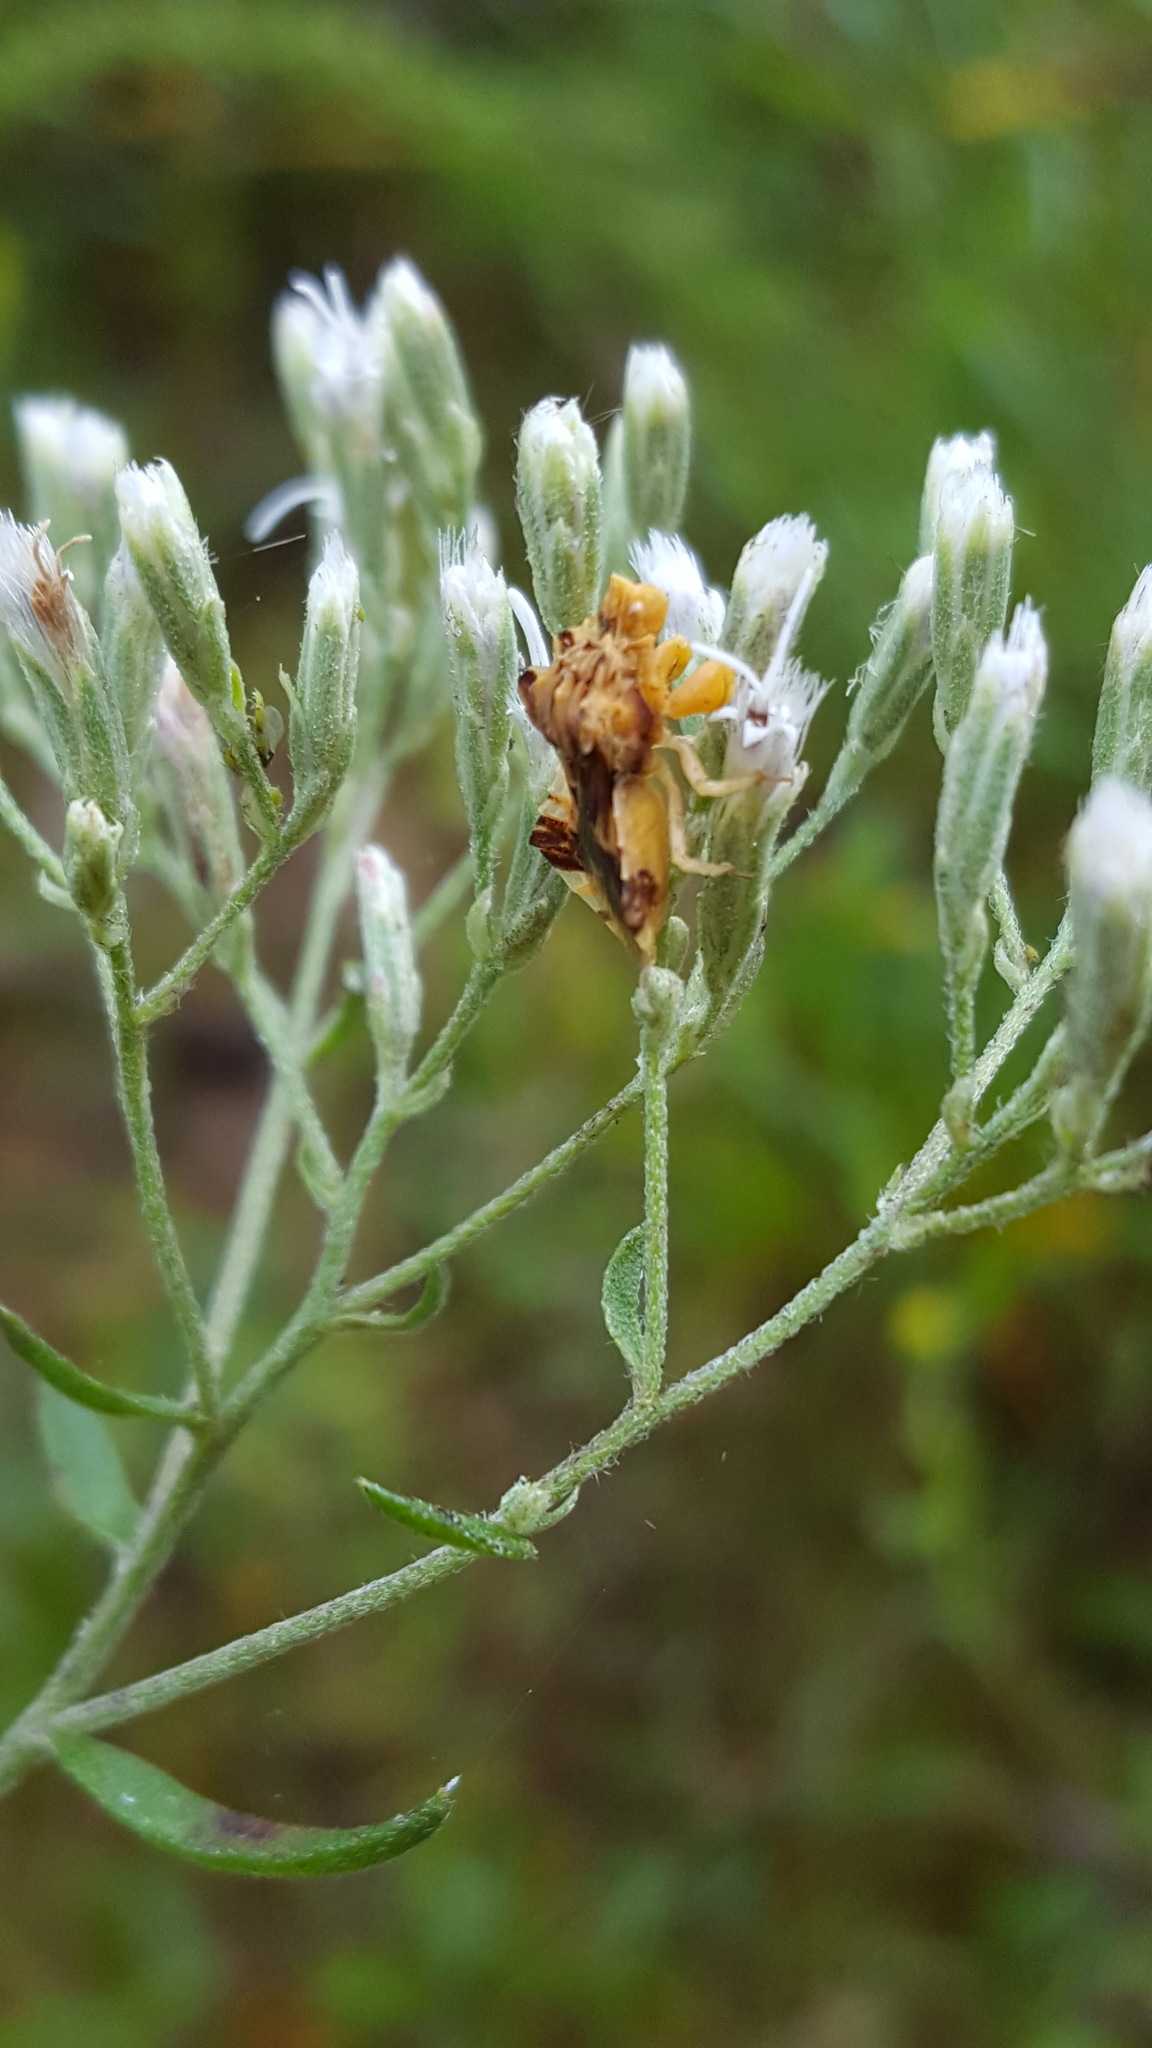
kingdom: Animalia
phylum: Arthropoda
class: Insecta
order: Hemiptera
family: Reduviidae
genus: Phymata
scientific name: Phymata fasciata
